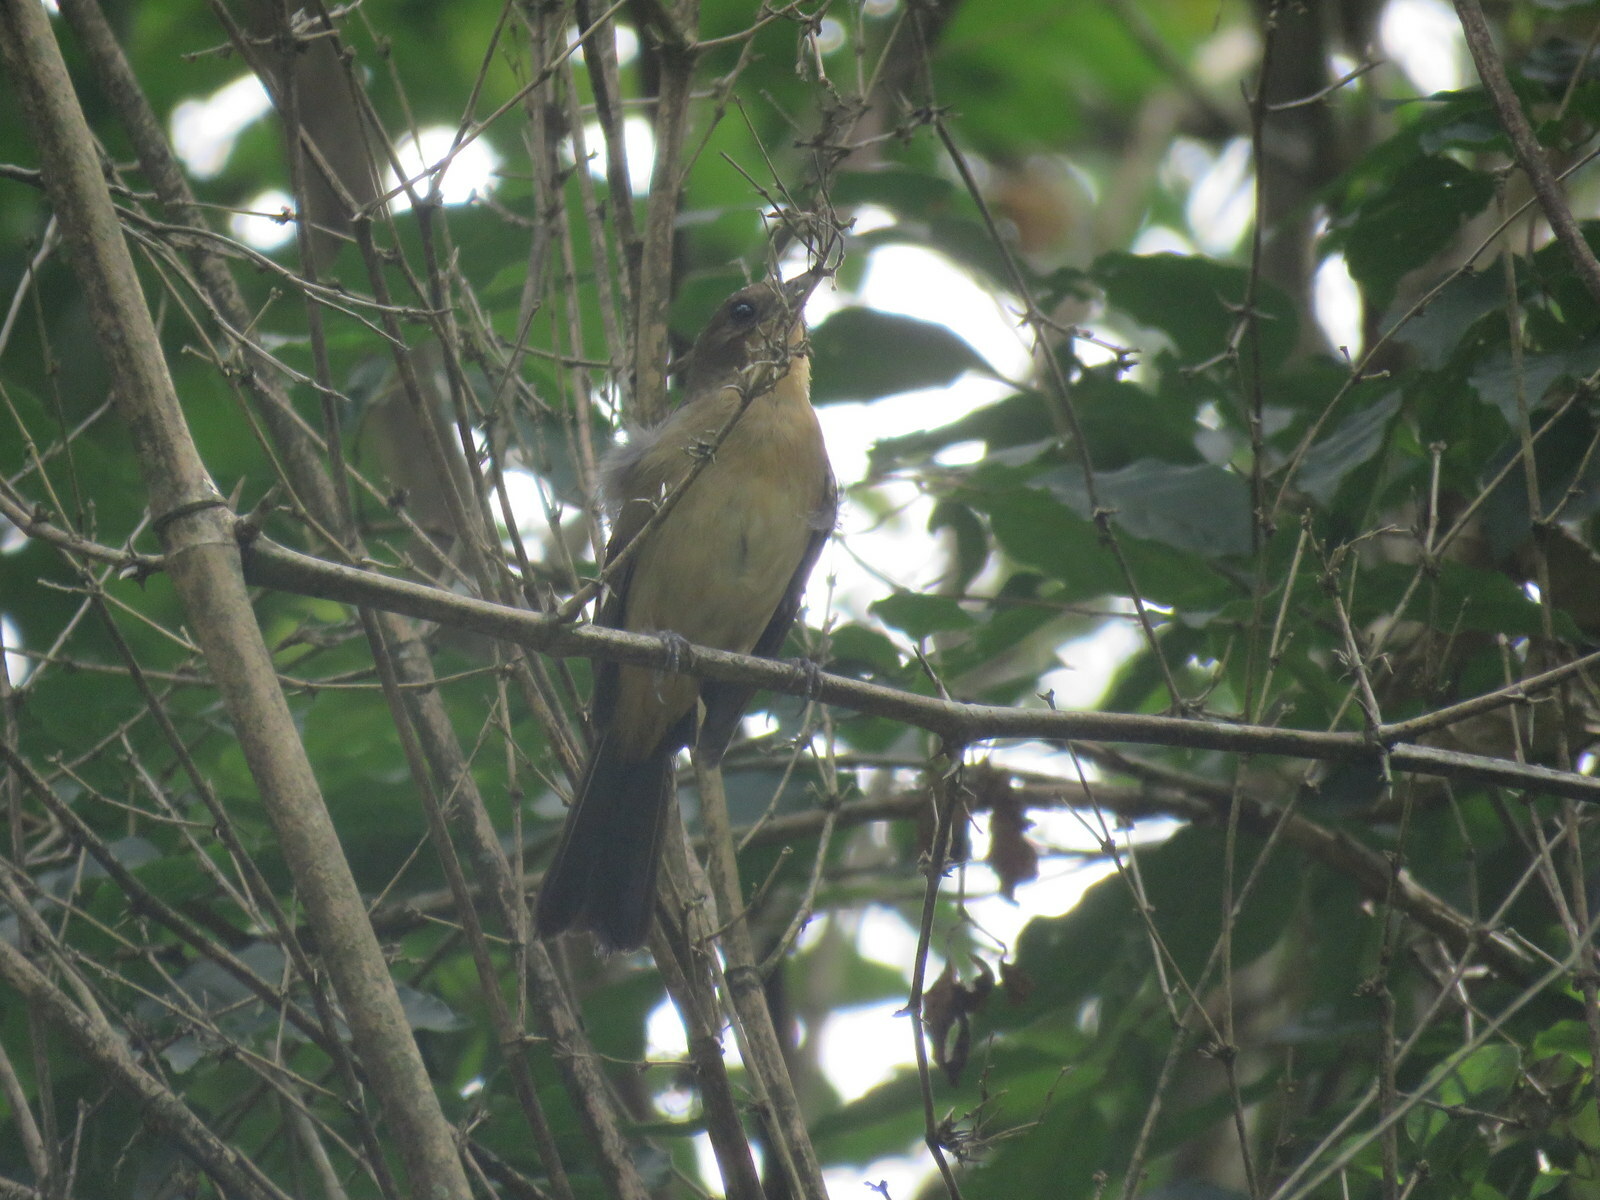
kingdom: Animalia
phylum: Chordata
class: Aves
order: Passeriformes
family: Thraupidae
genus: Trichothraupis
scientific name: Trichothraupis melanops
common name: Black-goggled tanager
